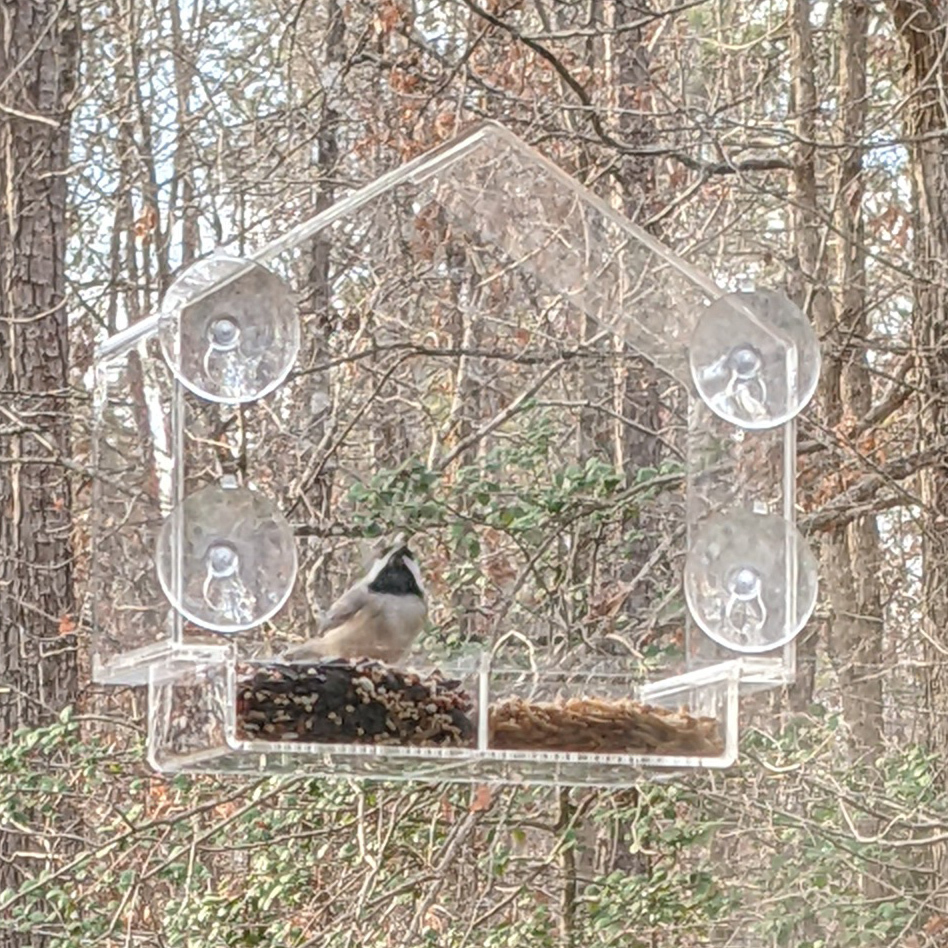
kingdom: Animalia
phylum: Chordata
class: Aves
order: Passeriformes
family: Paridae
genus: Poecile
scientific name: Poecile carolinensis
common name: Carolina chickadee
